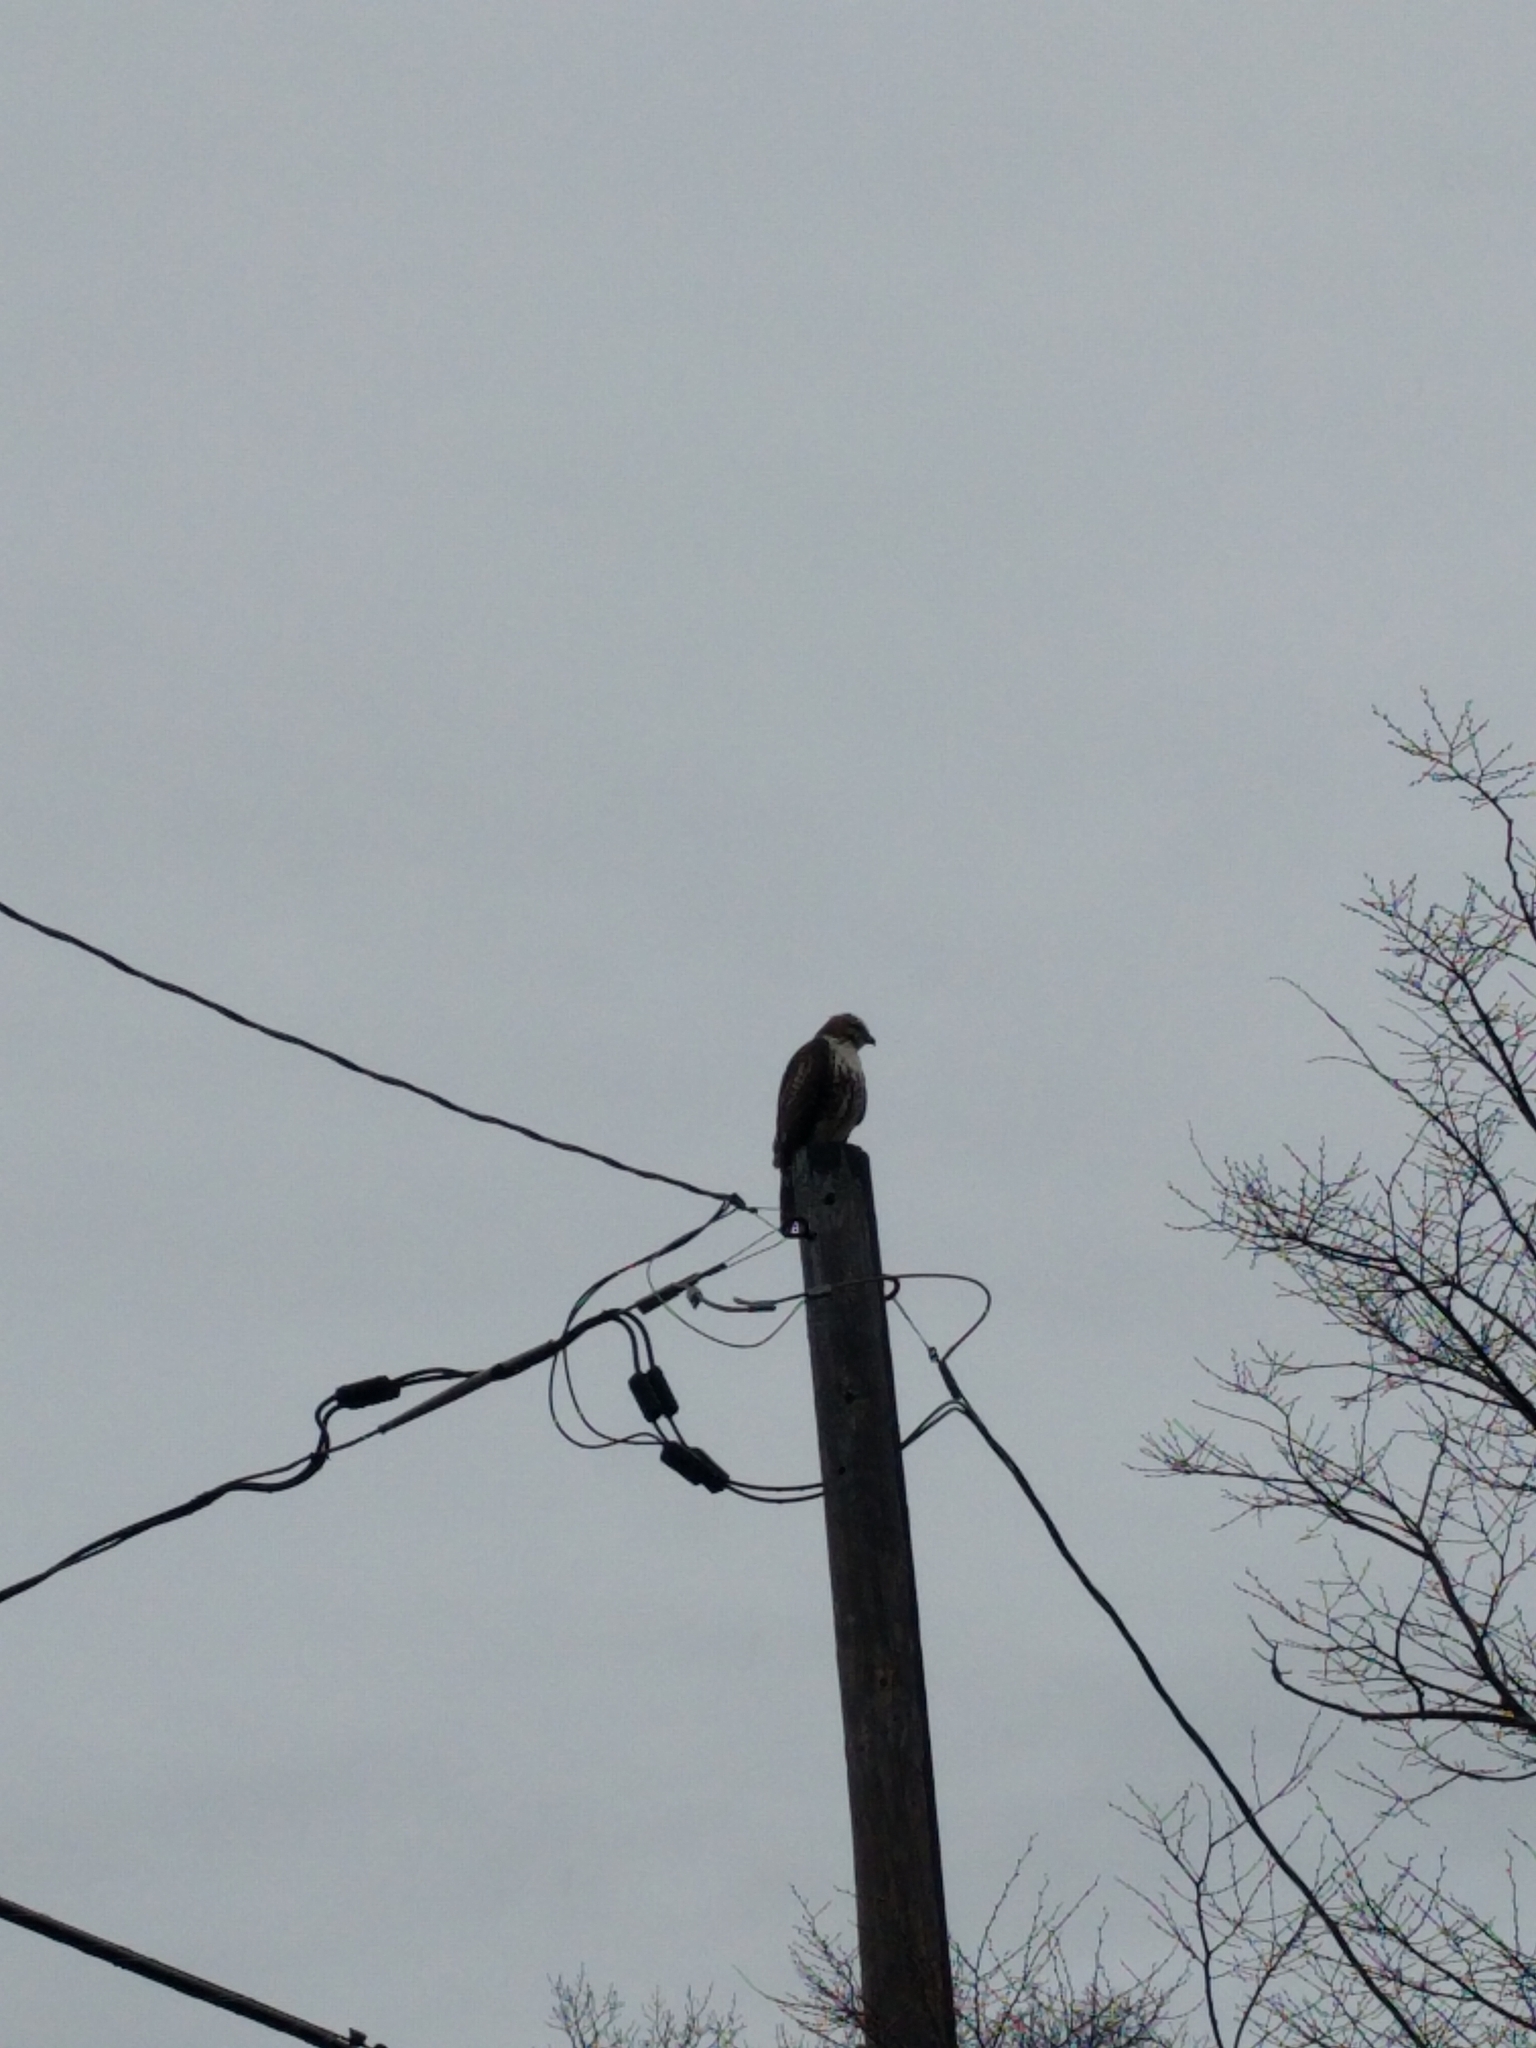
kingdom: Animalia
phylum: Chordata
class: Aves
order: Accipitriformes
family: Accipitridae
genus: Buteo
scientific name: Buteo jamaicensis
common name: Red-tailed hawk
